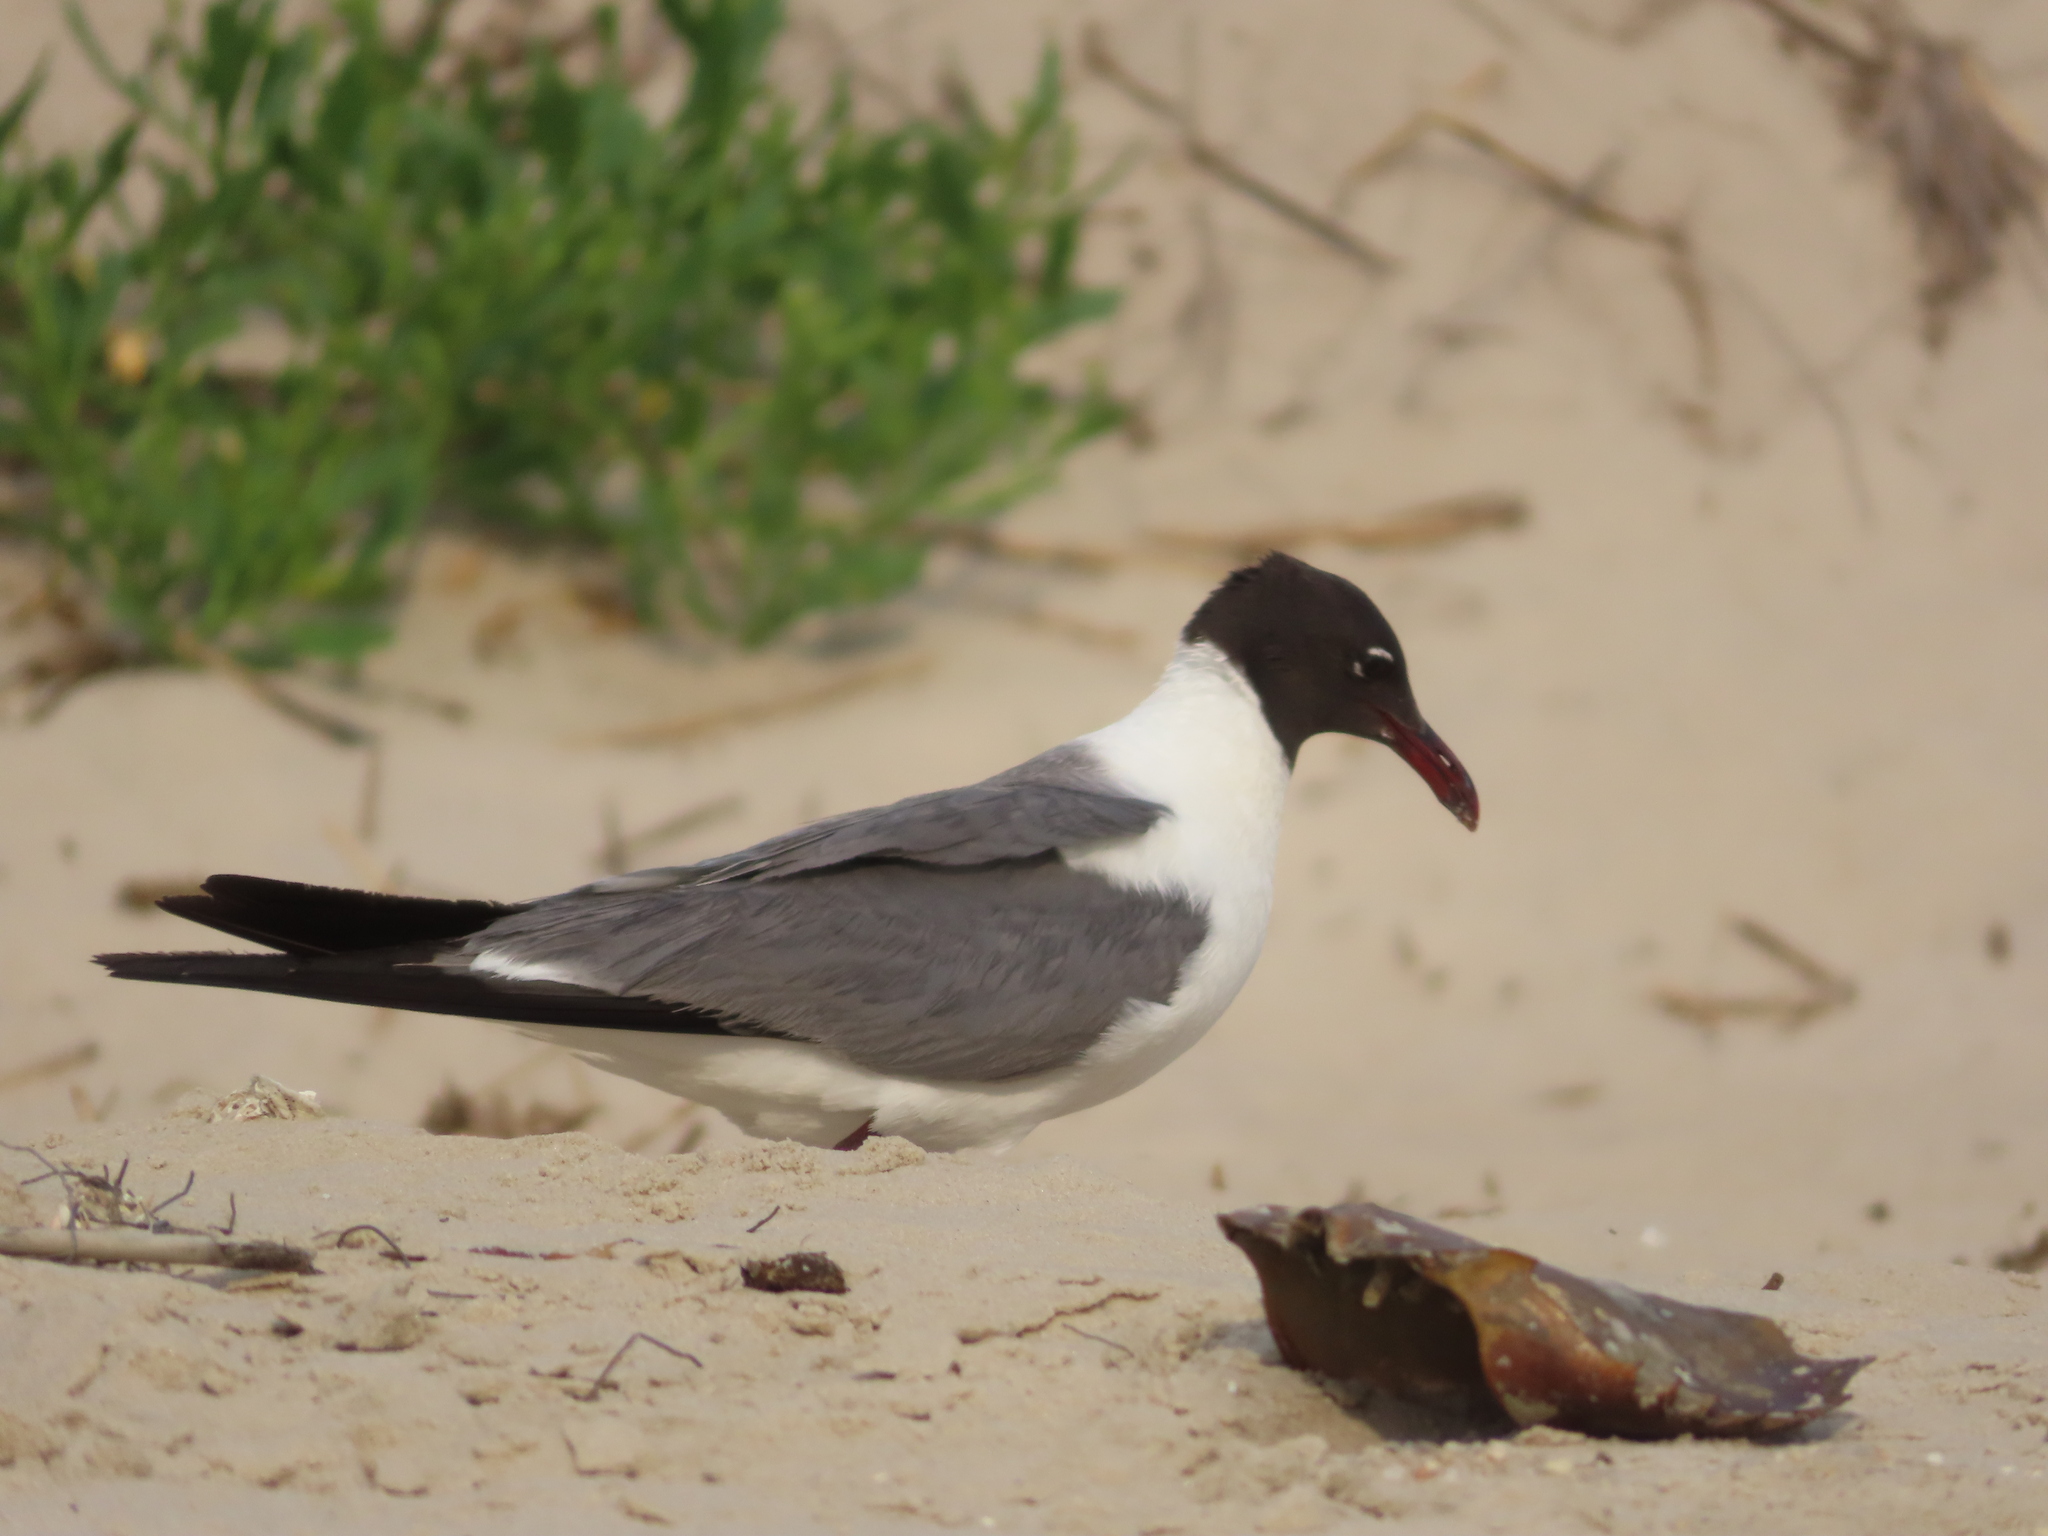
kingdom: Animalia
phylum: Chordata
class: Aves
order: Charadriiformes
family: Laridae
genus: Leucophaeus
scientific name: Leucophaeus atricilla
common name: Laughing gull
